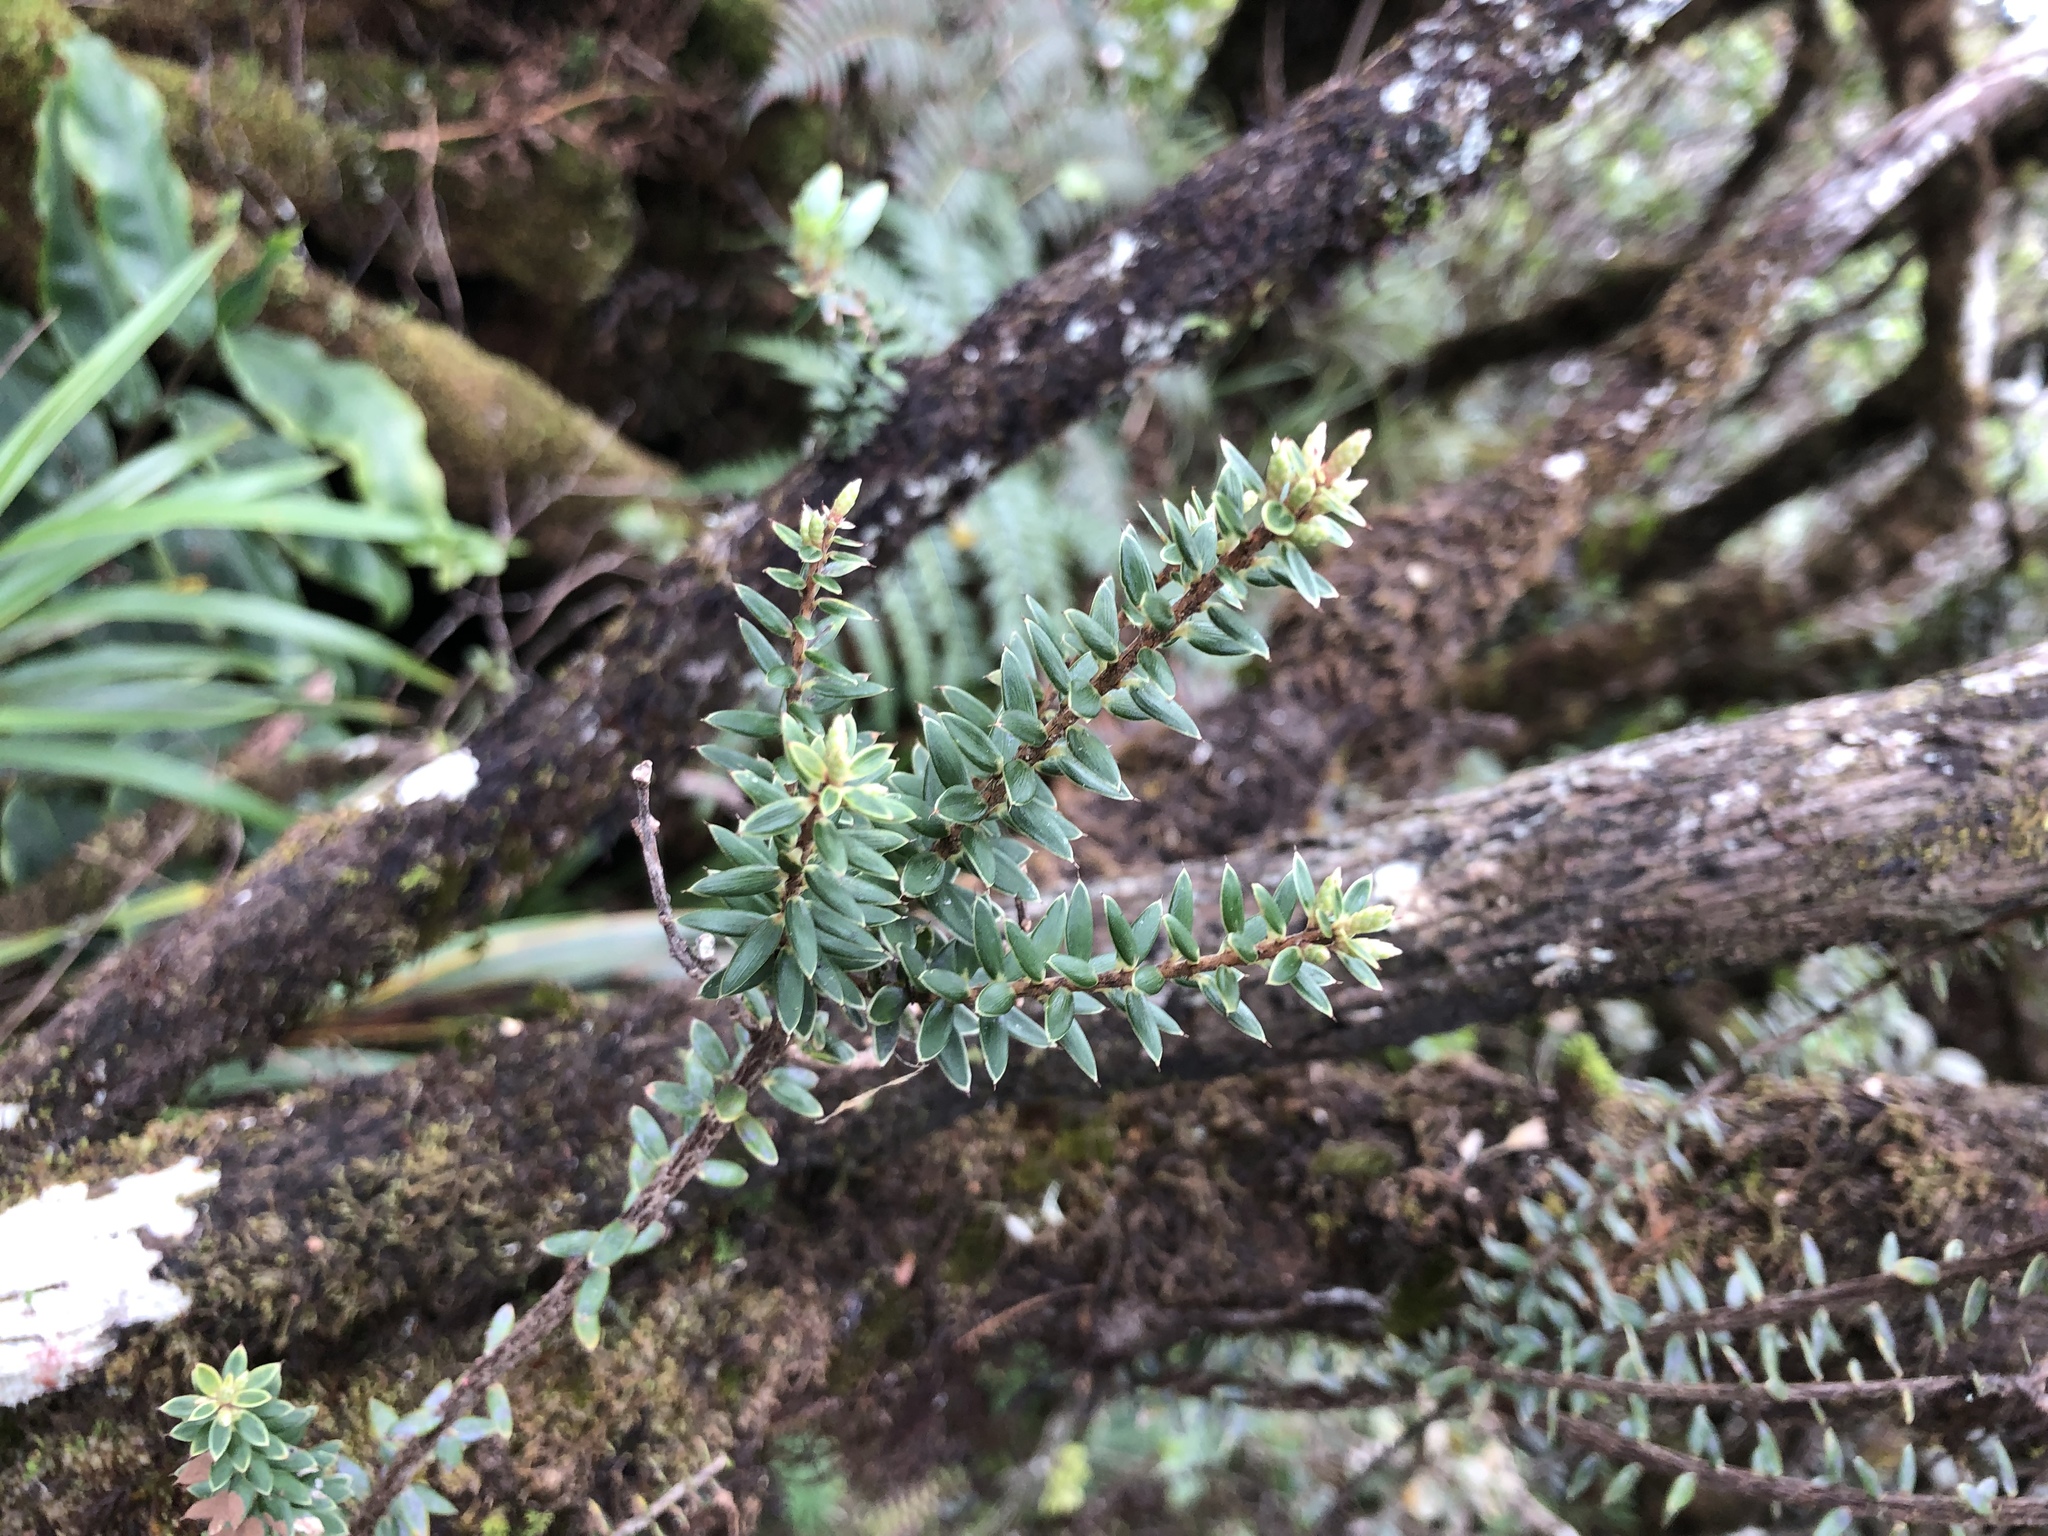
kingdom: Plantae
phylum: Tracheophyta
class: Magnoliopsida
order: Ericales
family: Ericaceae
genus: Leptecophylla
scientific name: Leptecophylla tameiameiae
